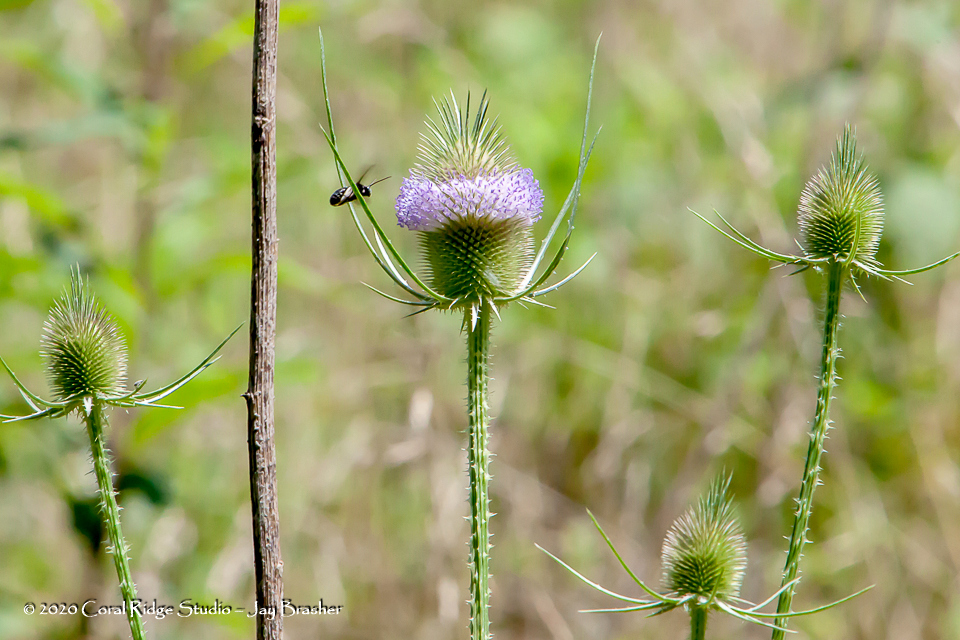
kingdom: Plantae
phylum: Tracheophyta
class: Magnoliopsida
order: Dipsacales
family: Caprifoliaceae
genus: Dipsacus
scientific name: Dipsacus fullonum
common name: Teasel
